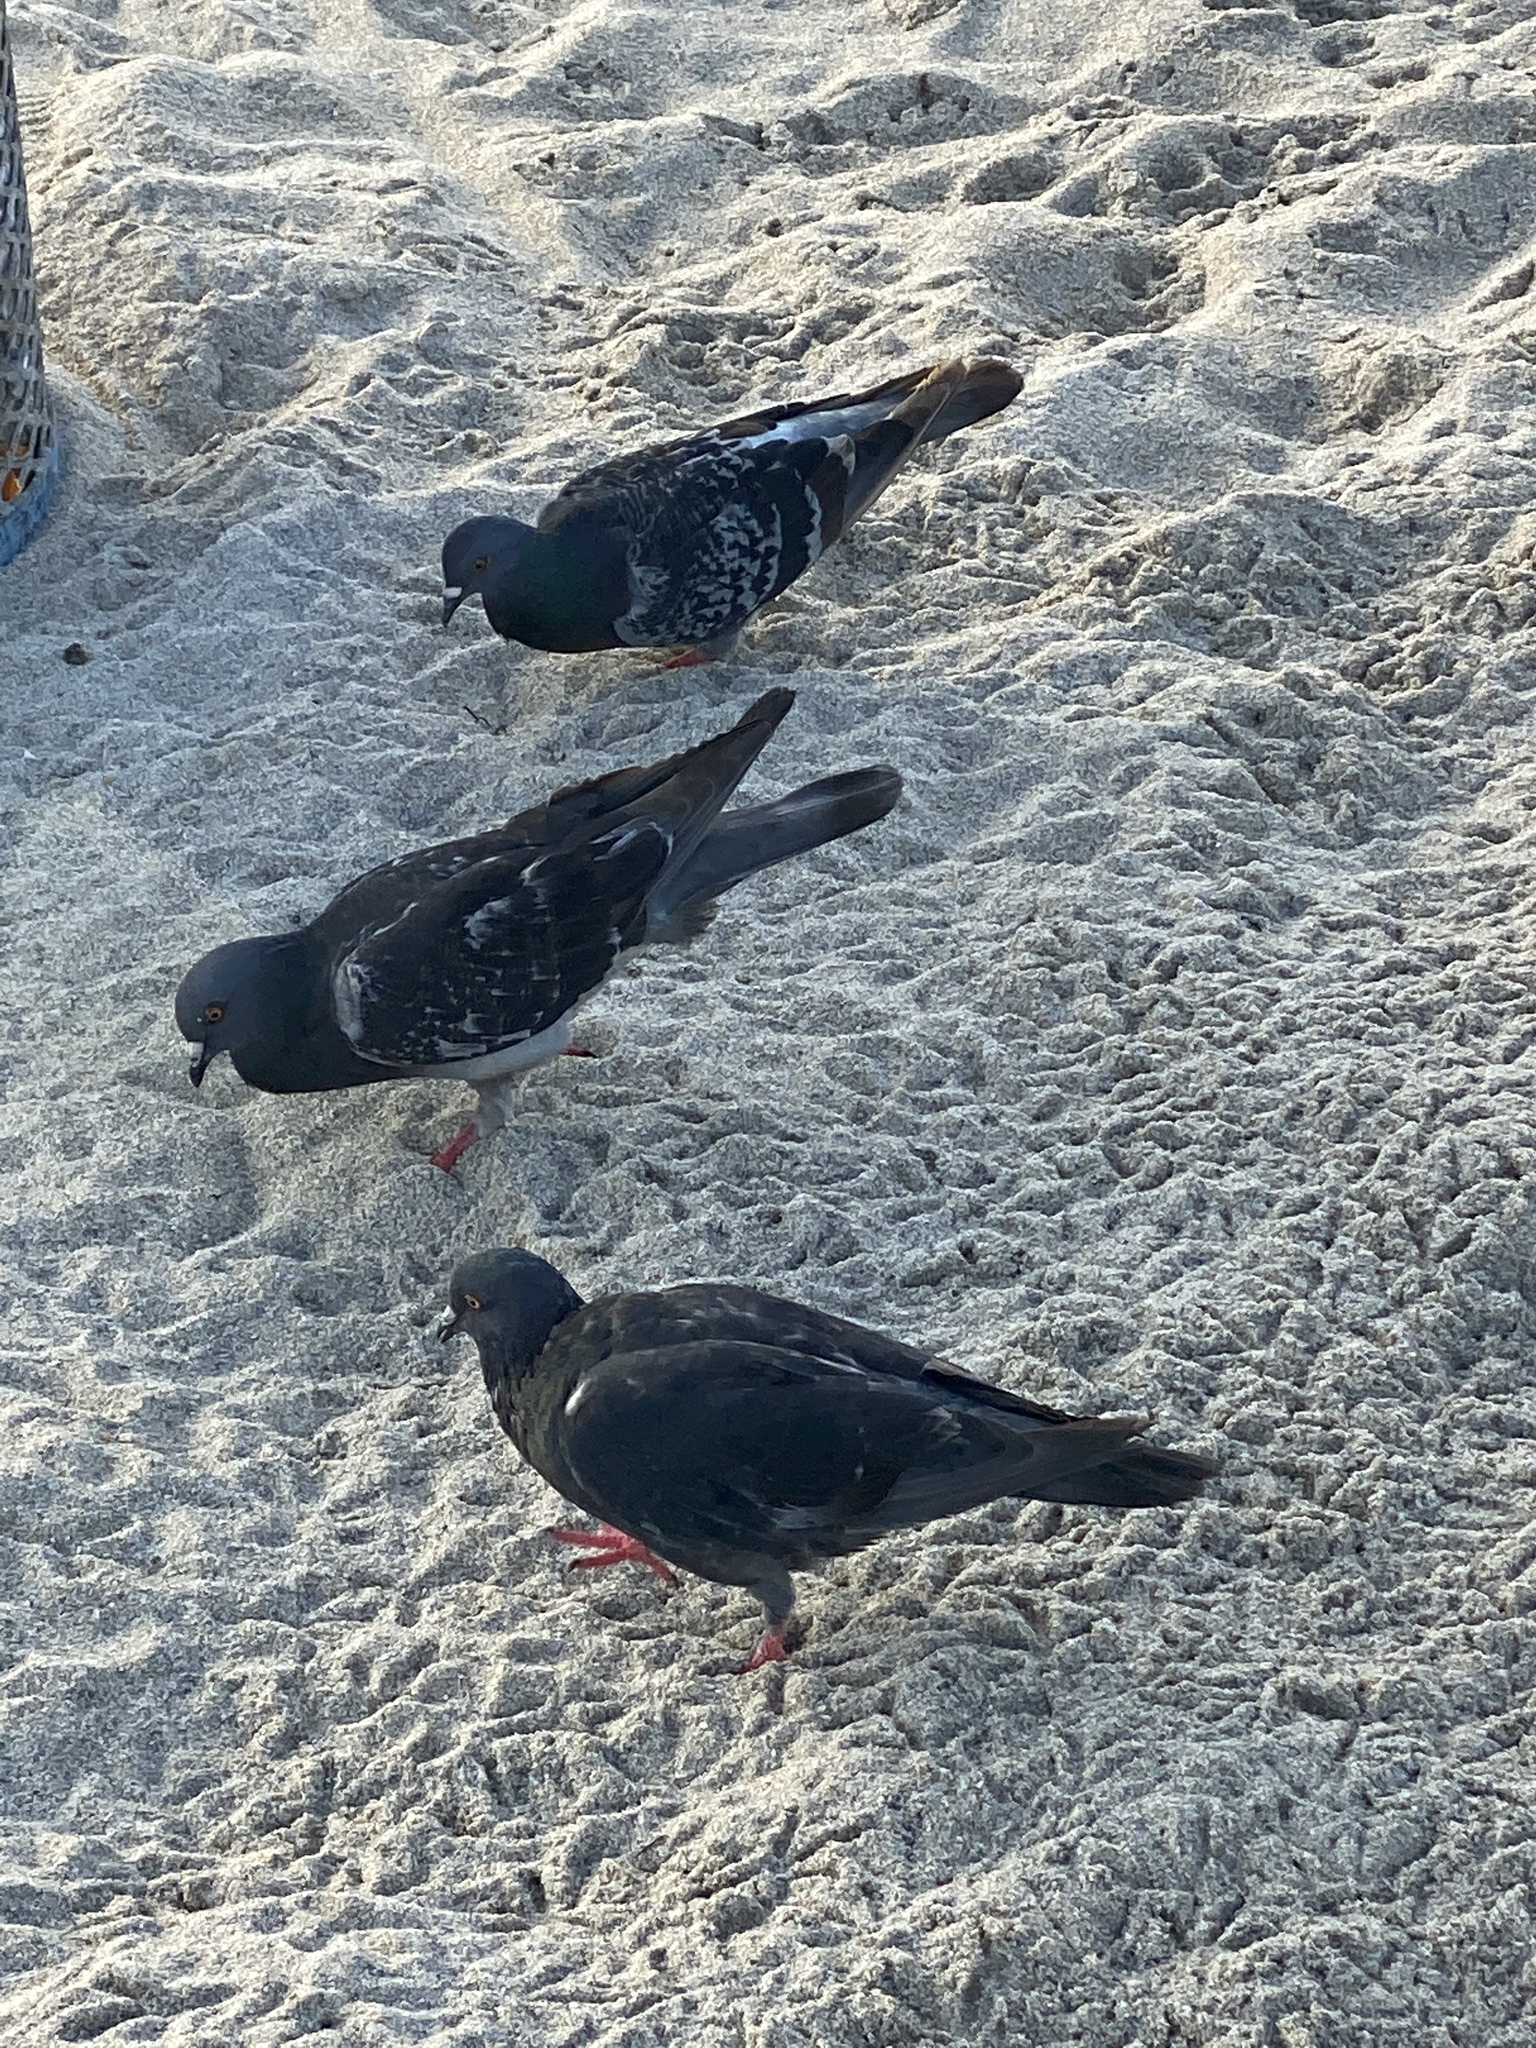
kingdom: Animalia
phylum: Chordata
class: Aves
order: Columbiformes
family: Columbidae
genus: Columba
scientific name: Columba livia
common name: Rock pigeon
